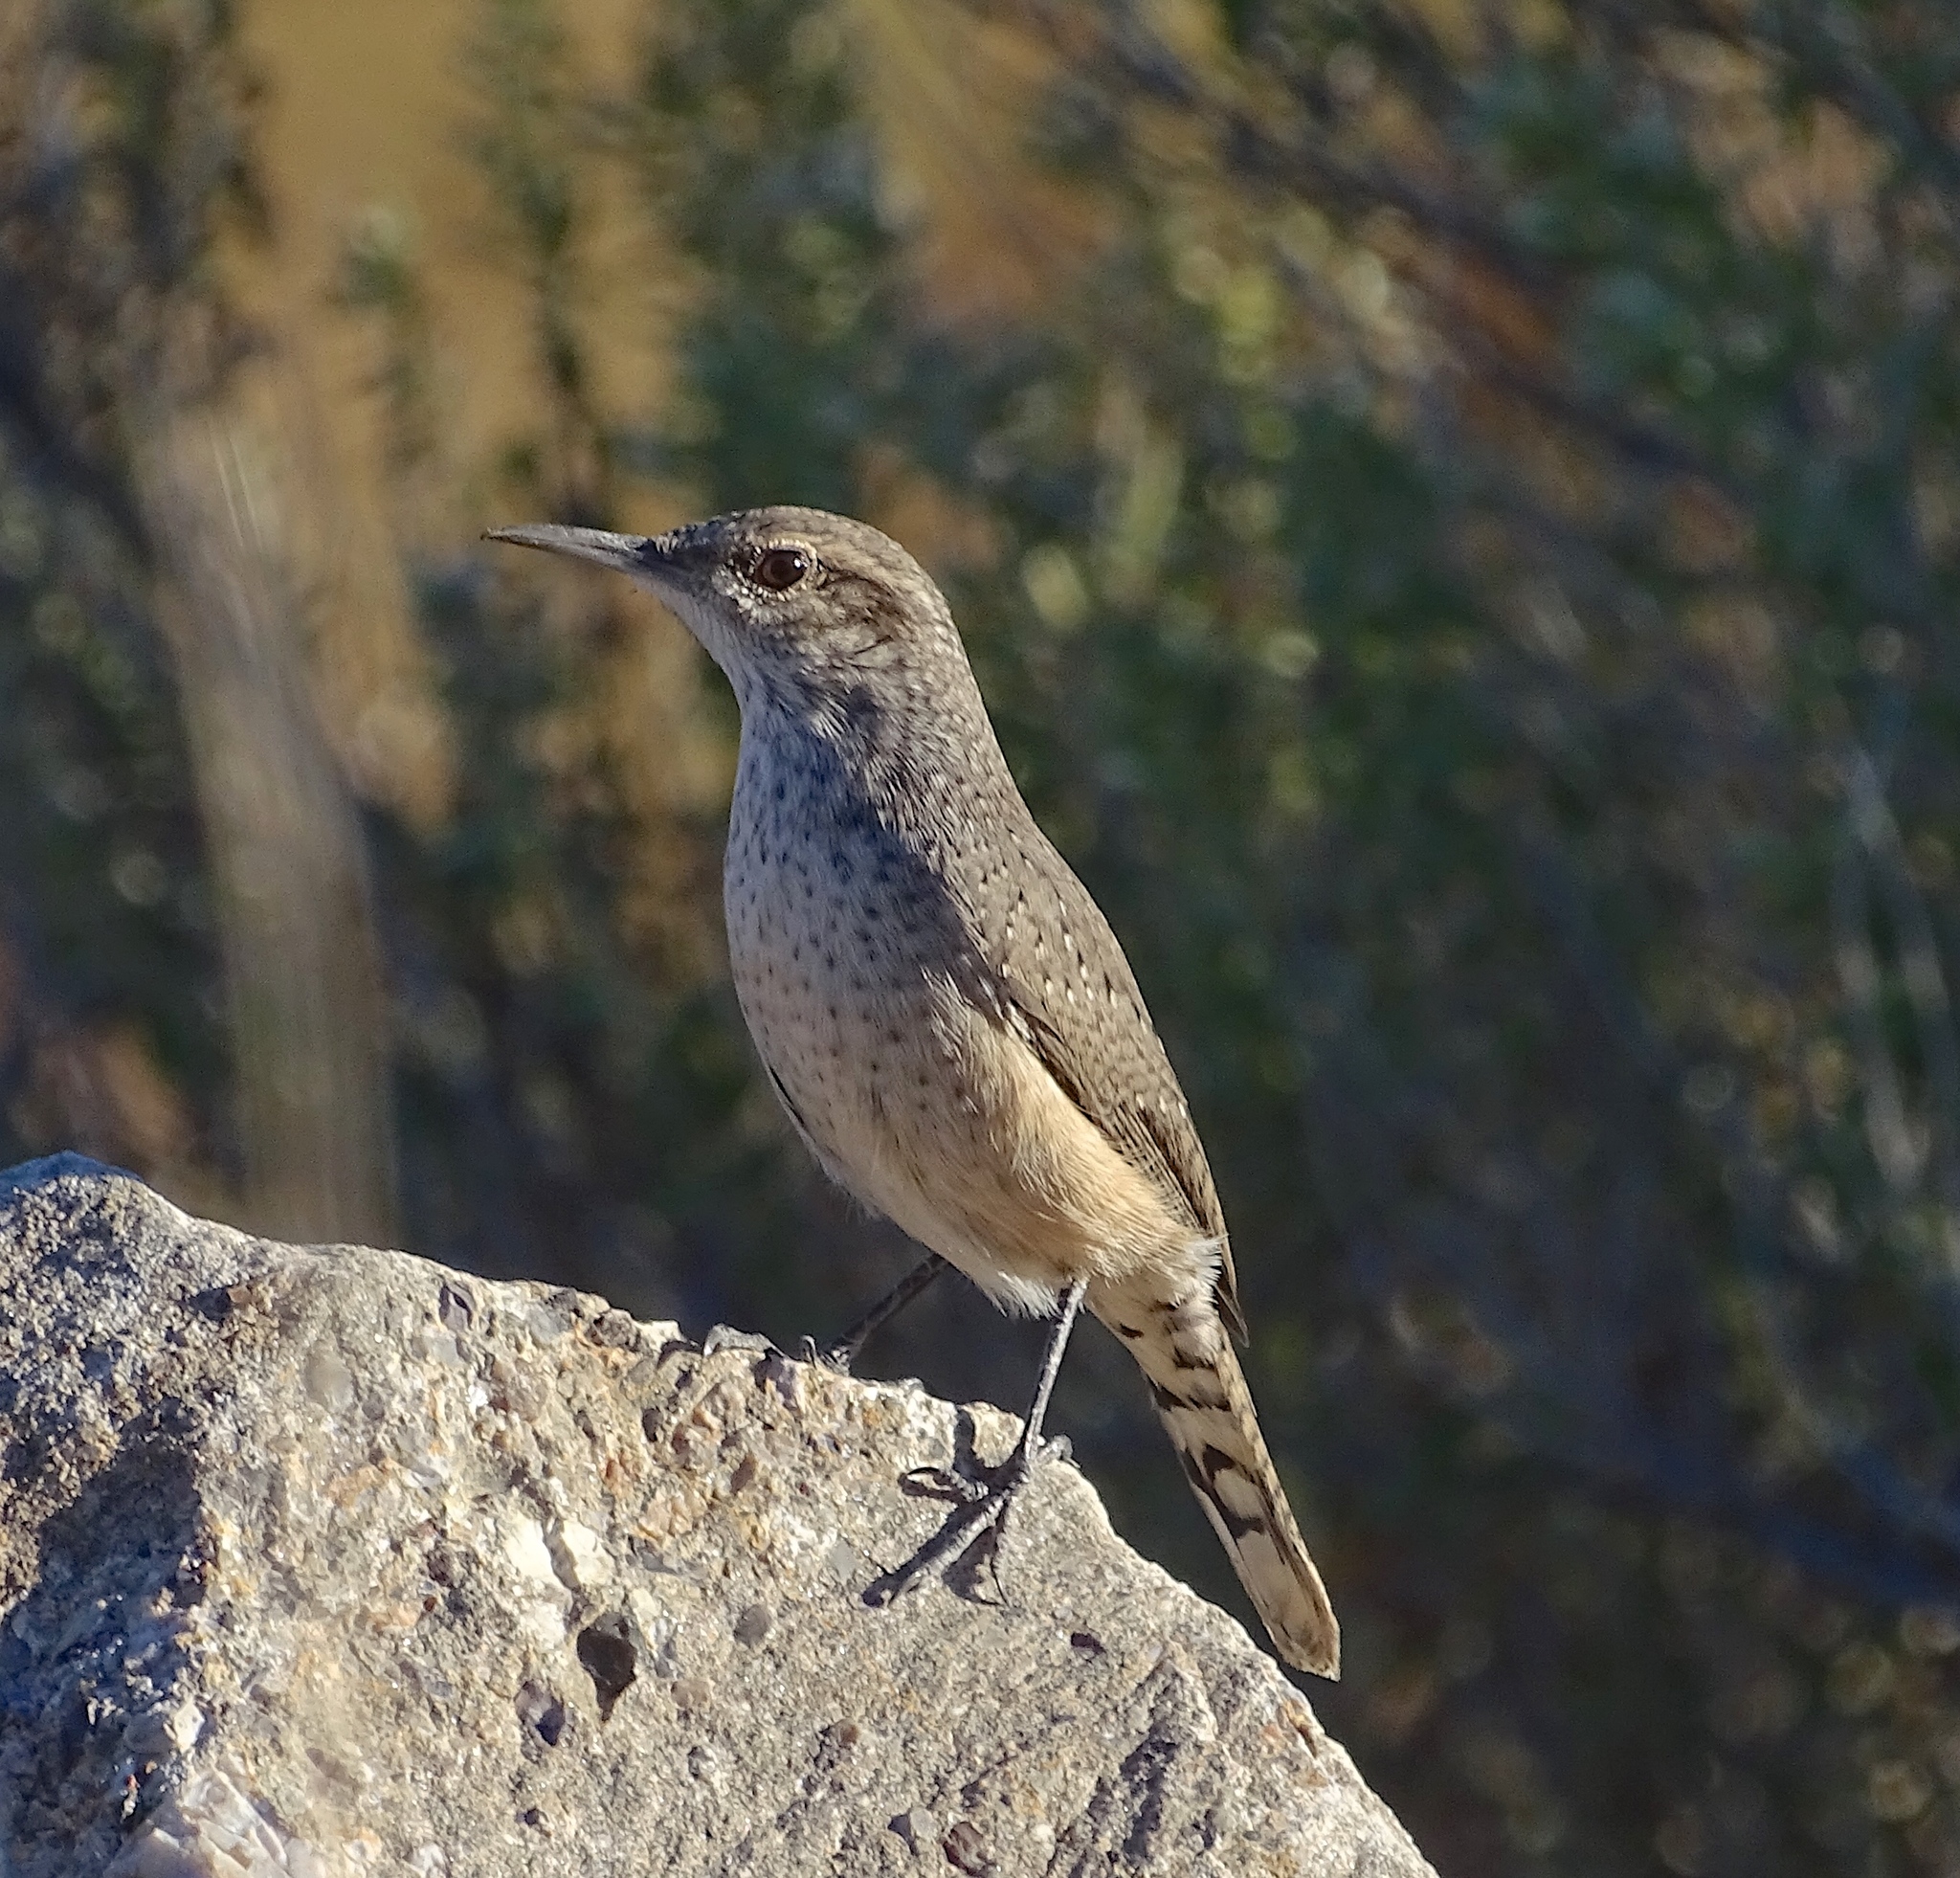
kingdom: Animalia
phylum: Chordata
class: Aves
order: Passeriformes
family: Troglodytidae
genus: Salpinctes
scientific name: Salpinctes obsoletus
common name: Rock wren
